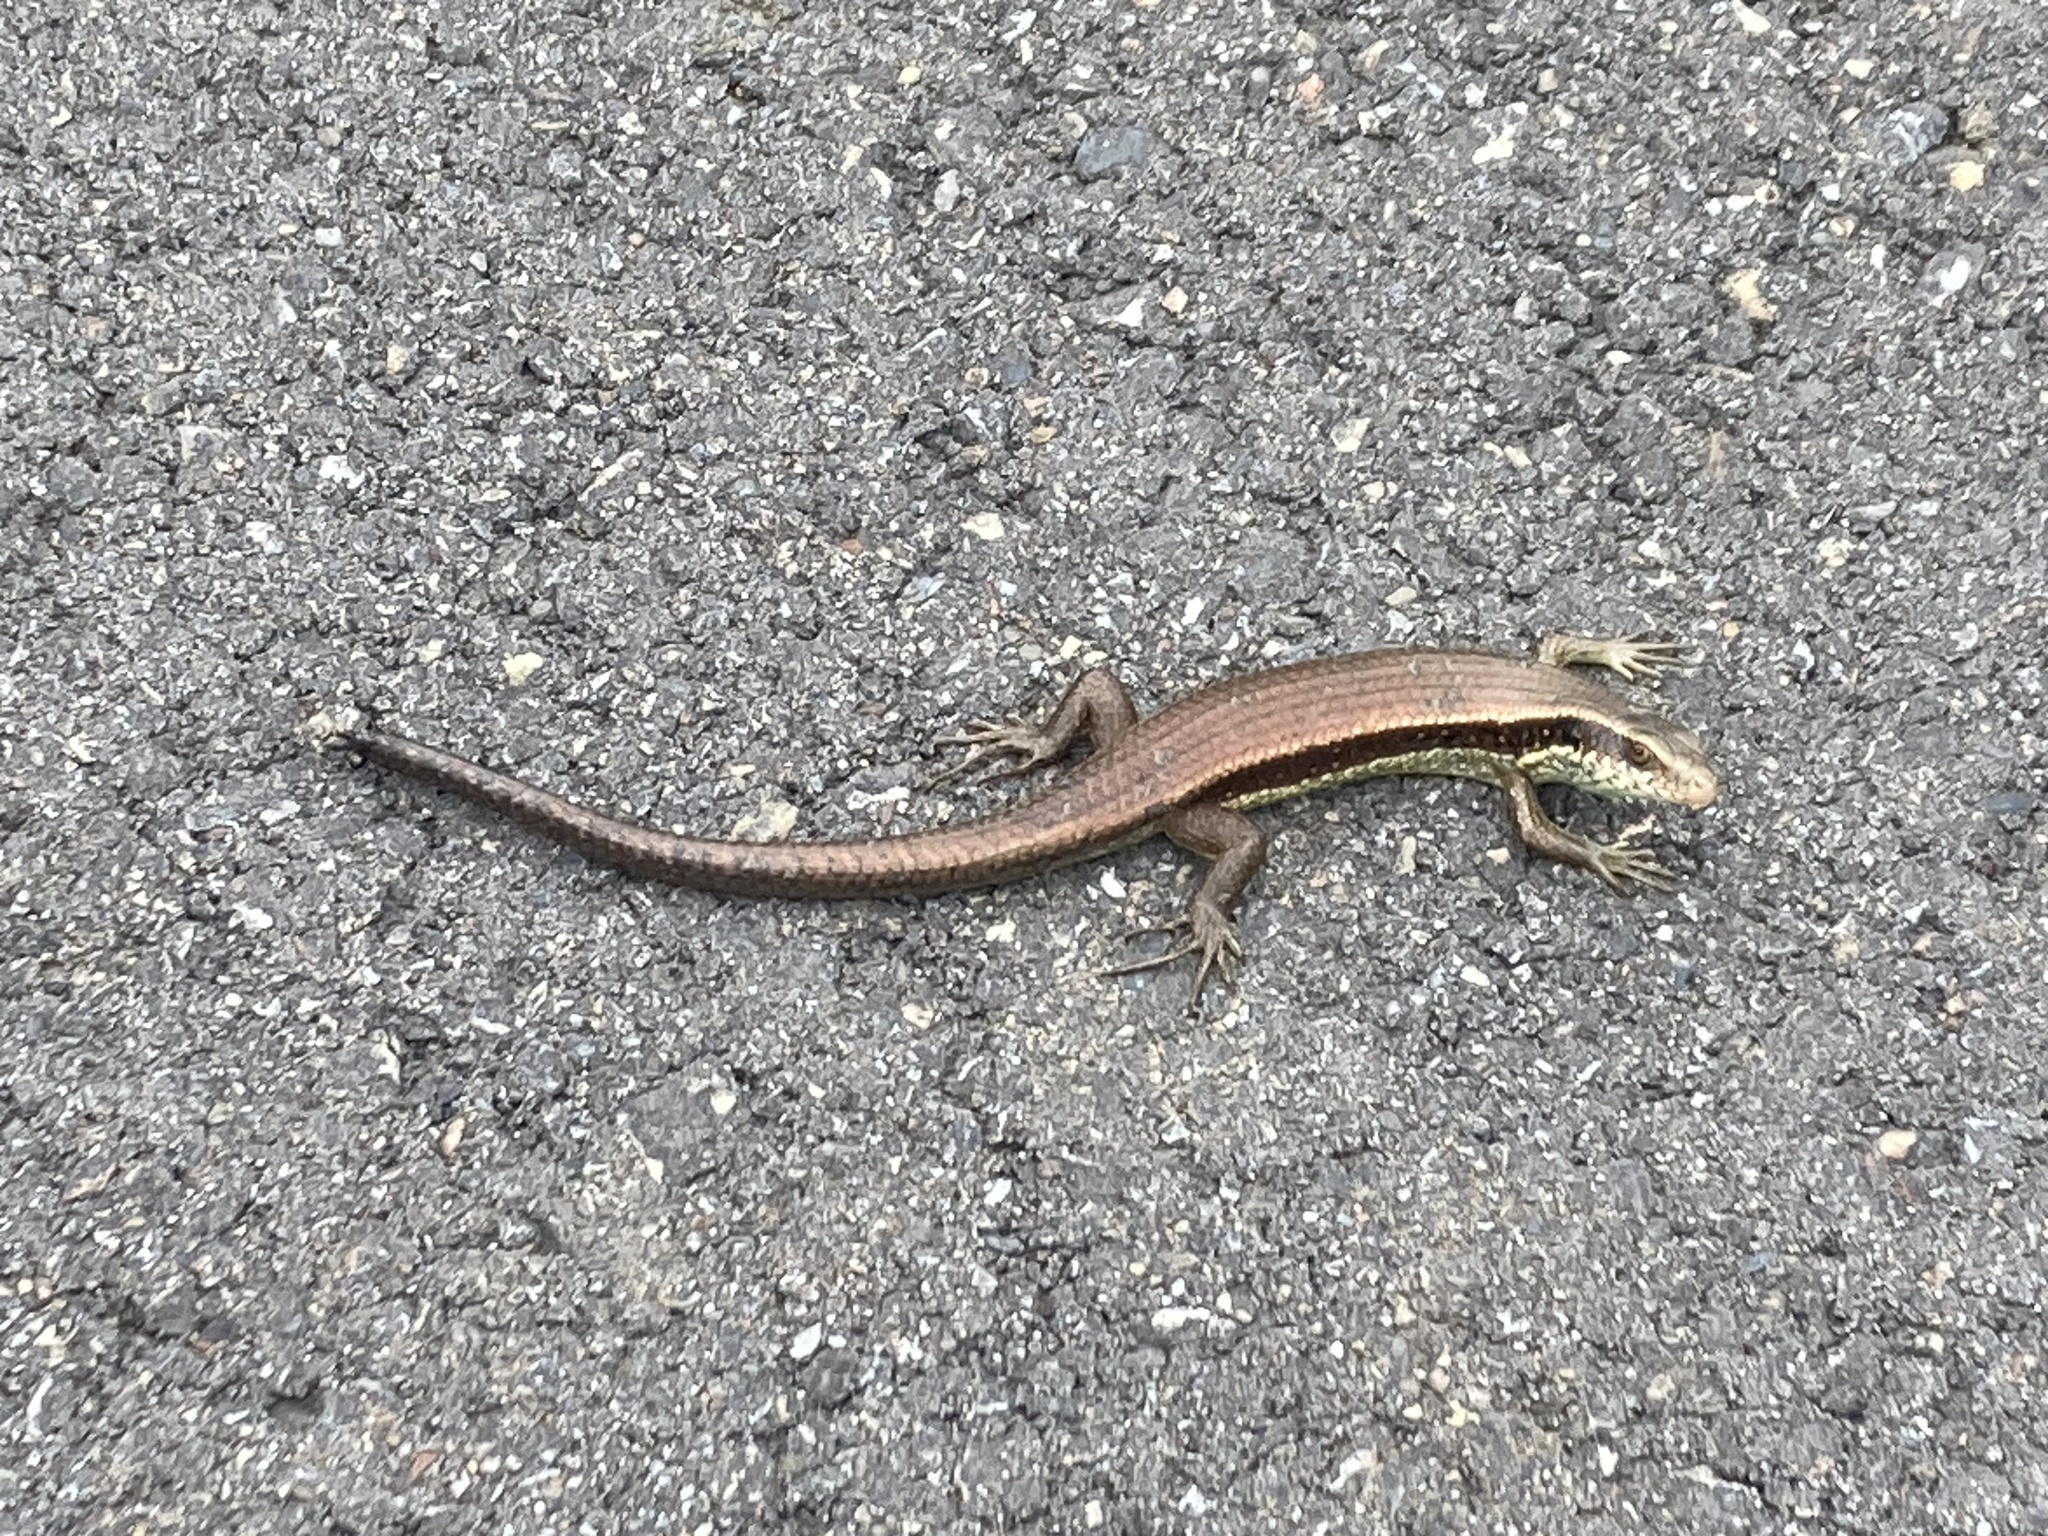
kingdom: Animalia
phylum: Chordata
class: Squamata
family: Scincidae
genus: Eutropis
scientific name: Eutropis longicaudata
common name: Long-tailed sun skink
